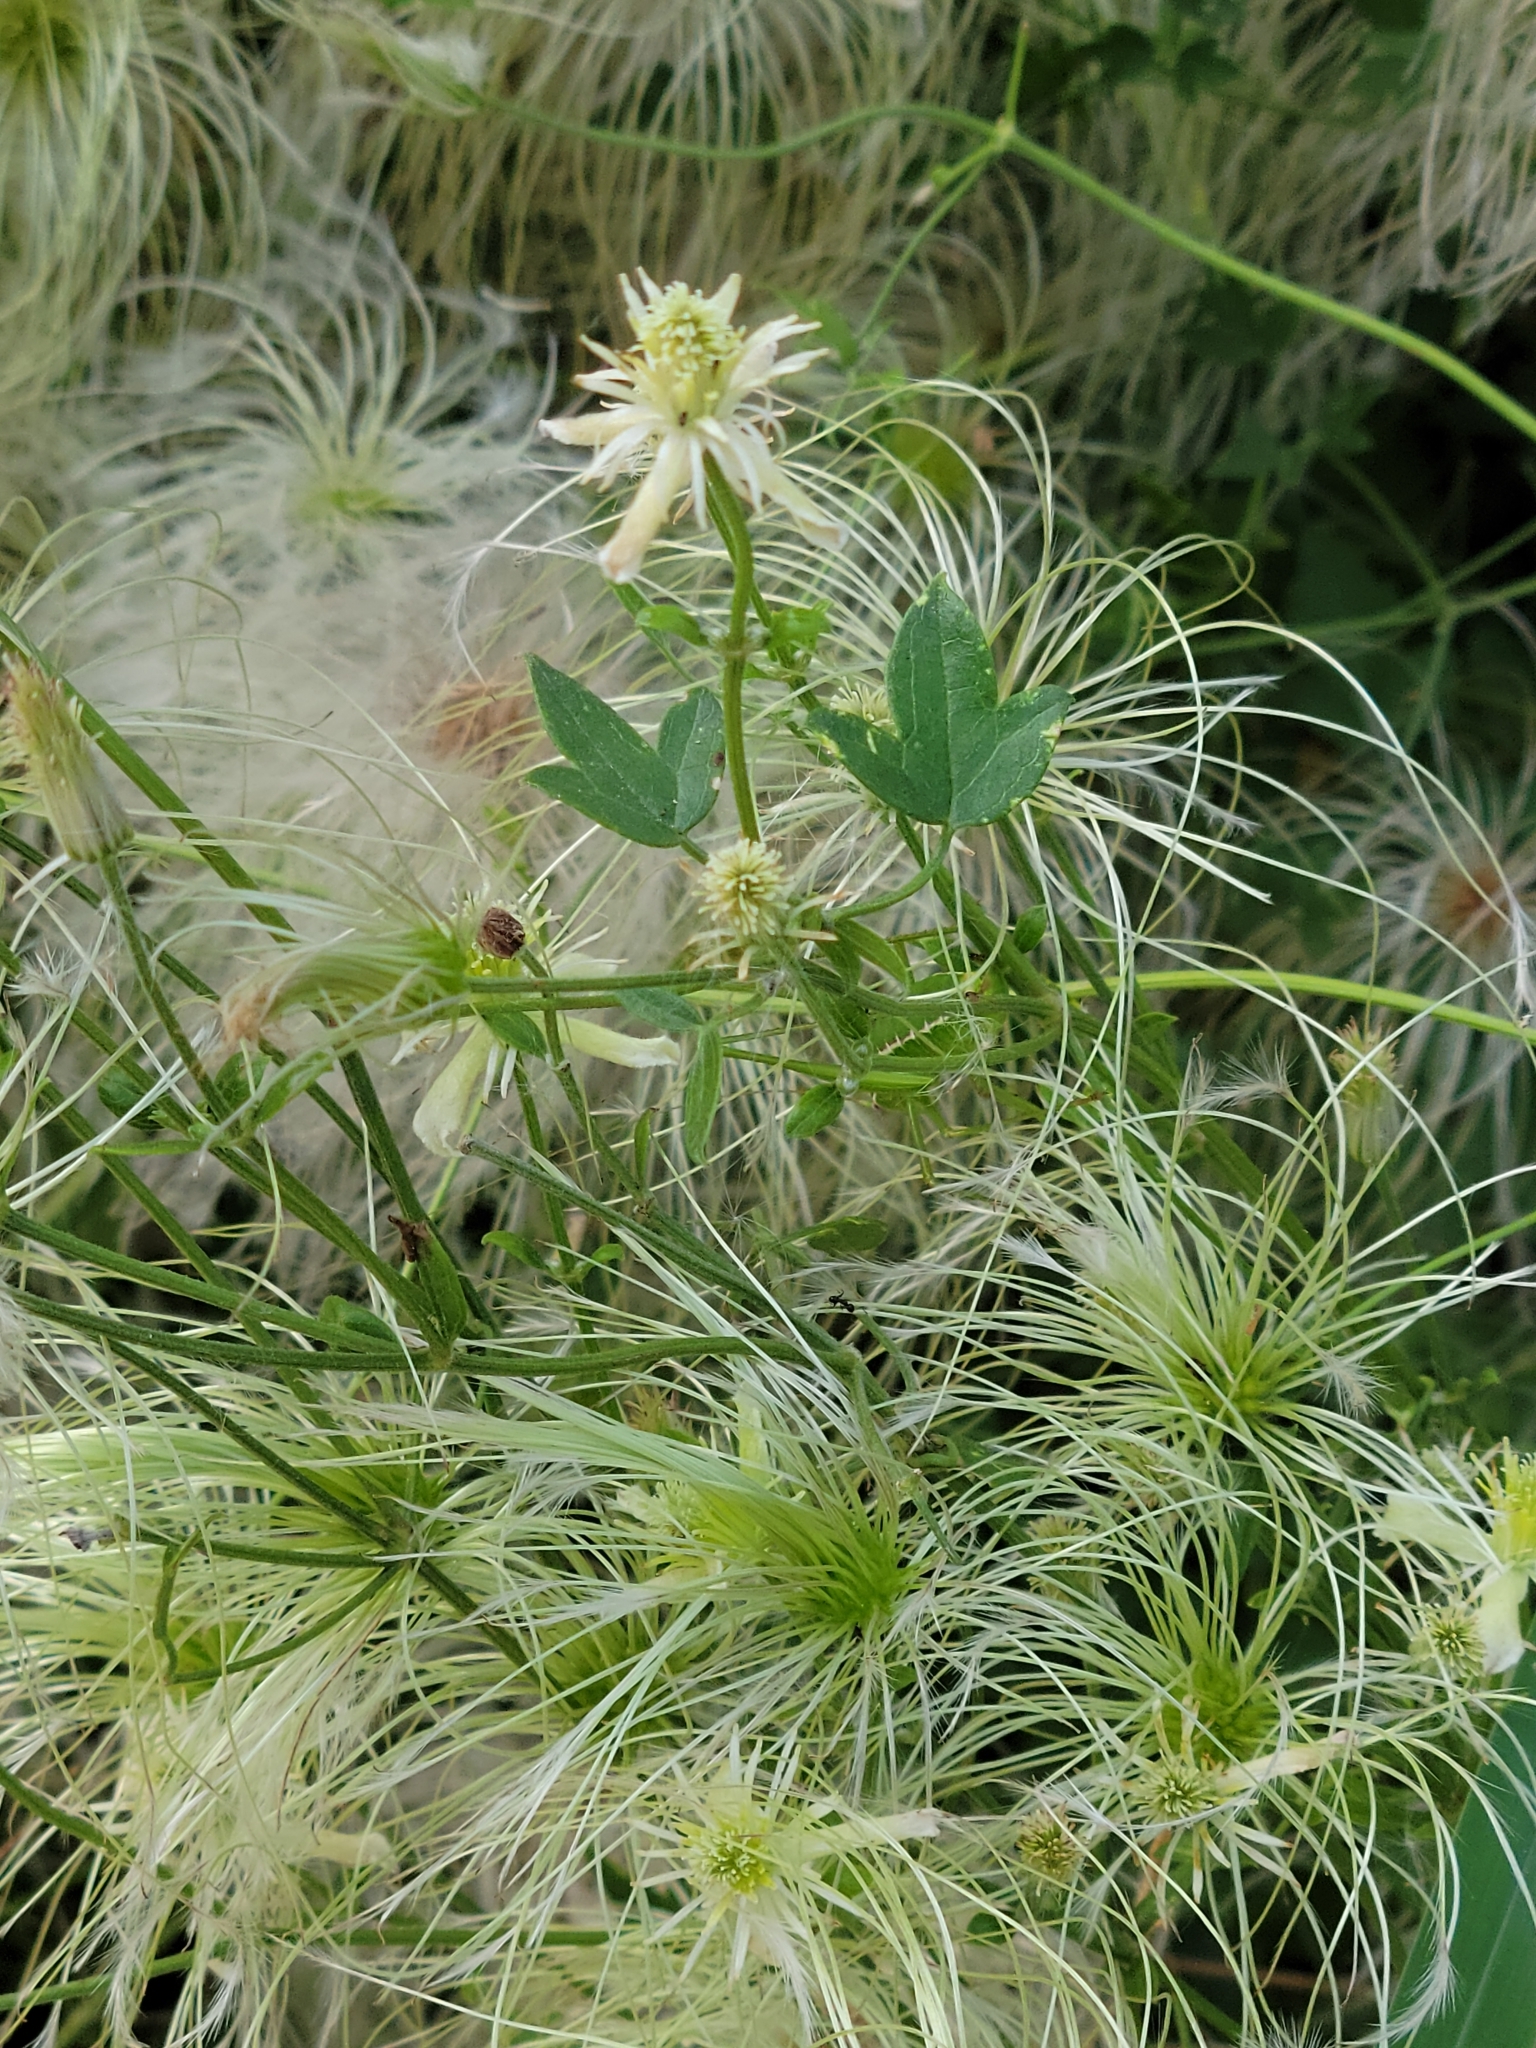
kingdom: Plantae
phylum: Tracheophyta
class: Magnoliopsida
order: Ranunculales
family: Ranunculaceae
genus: Clematis
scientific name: Clematis drummondii
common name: Texas virgin's bower
